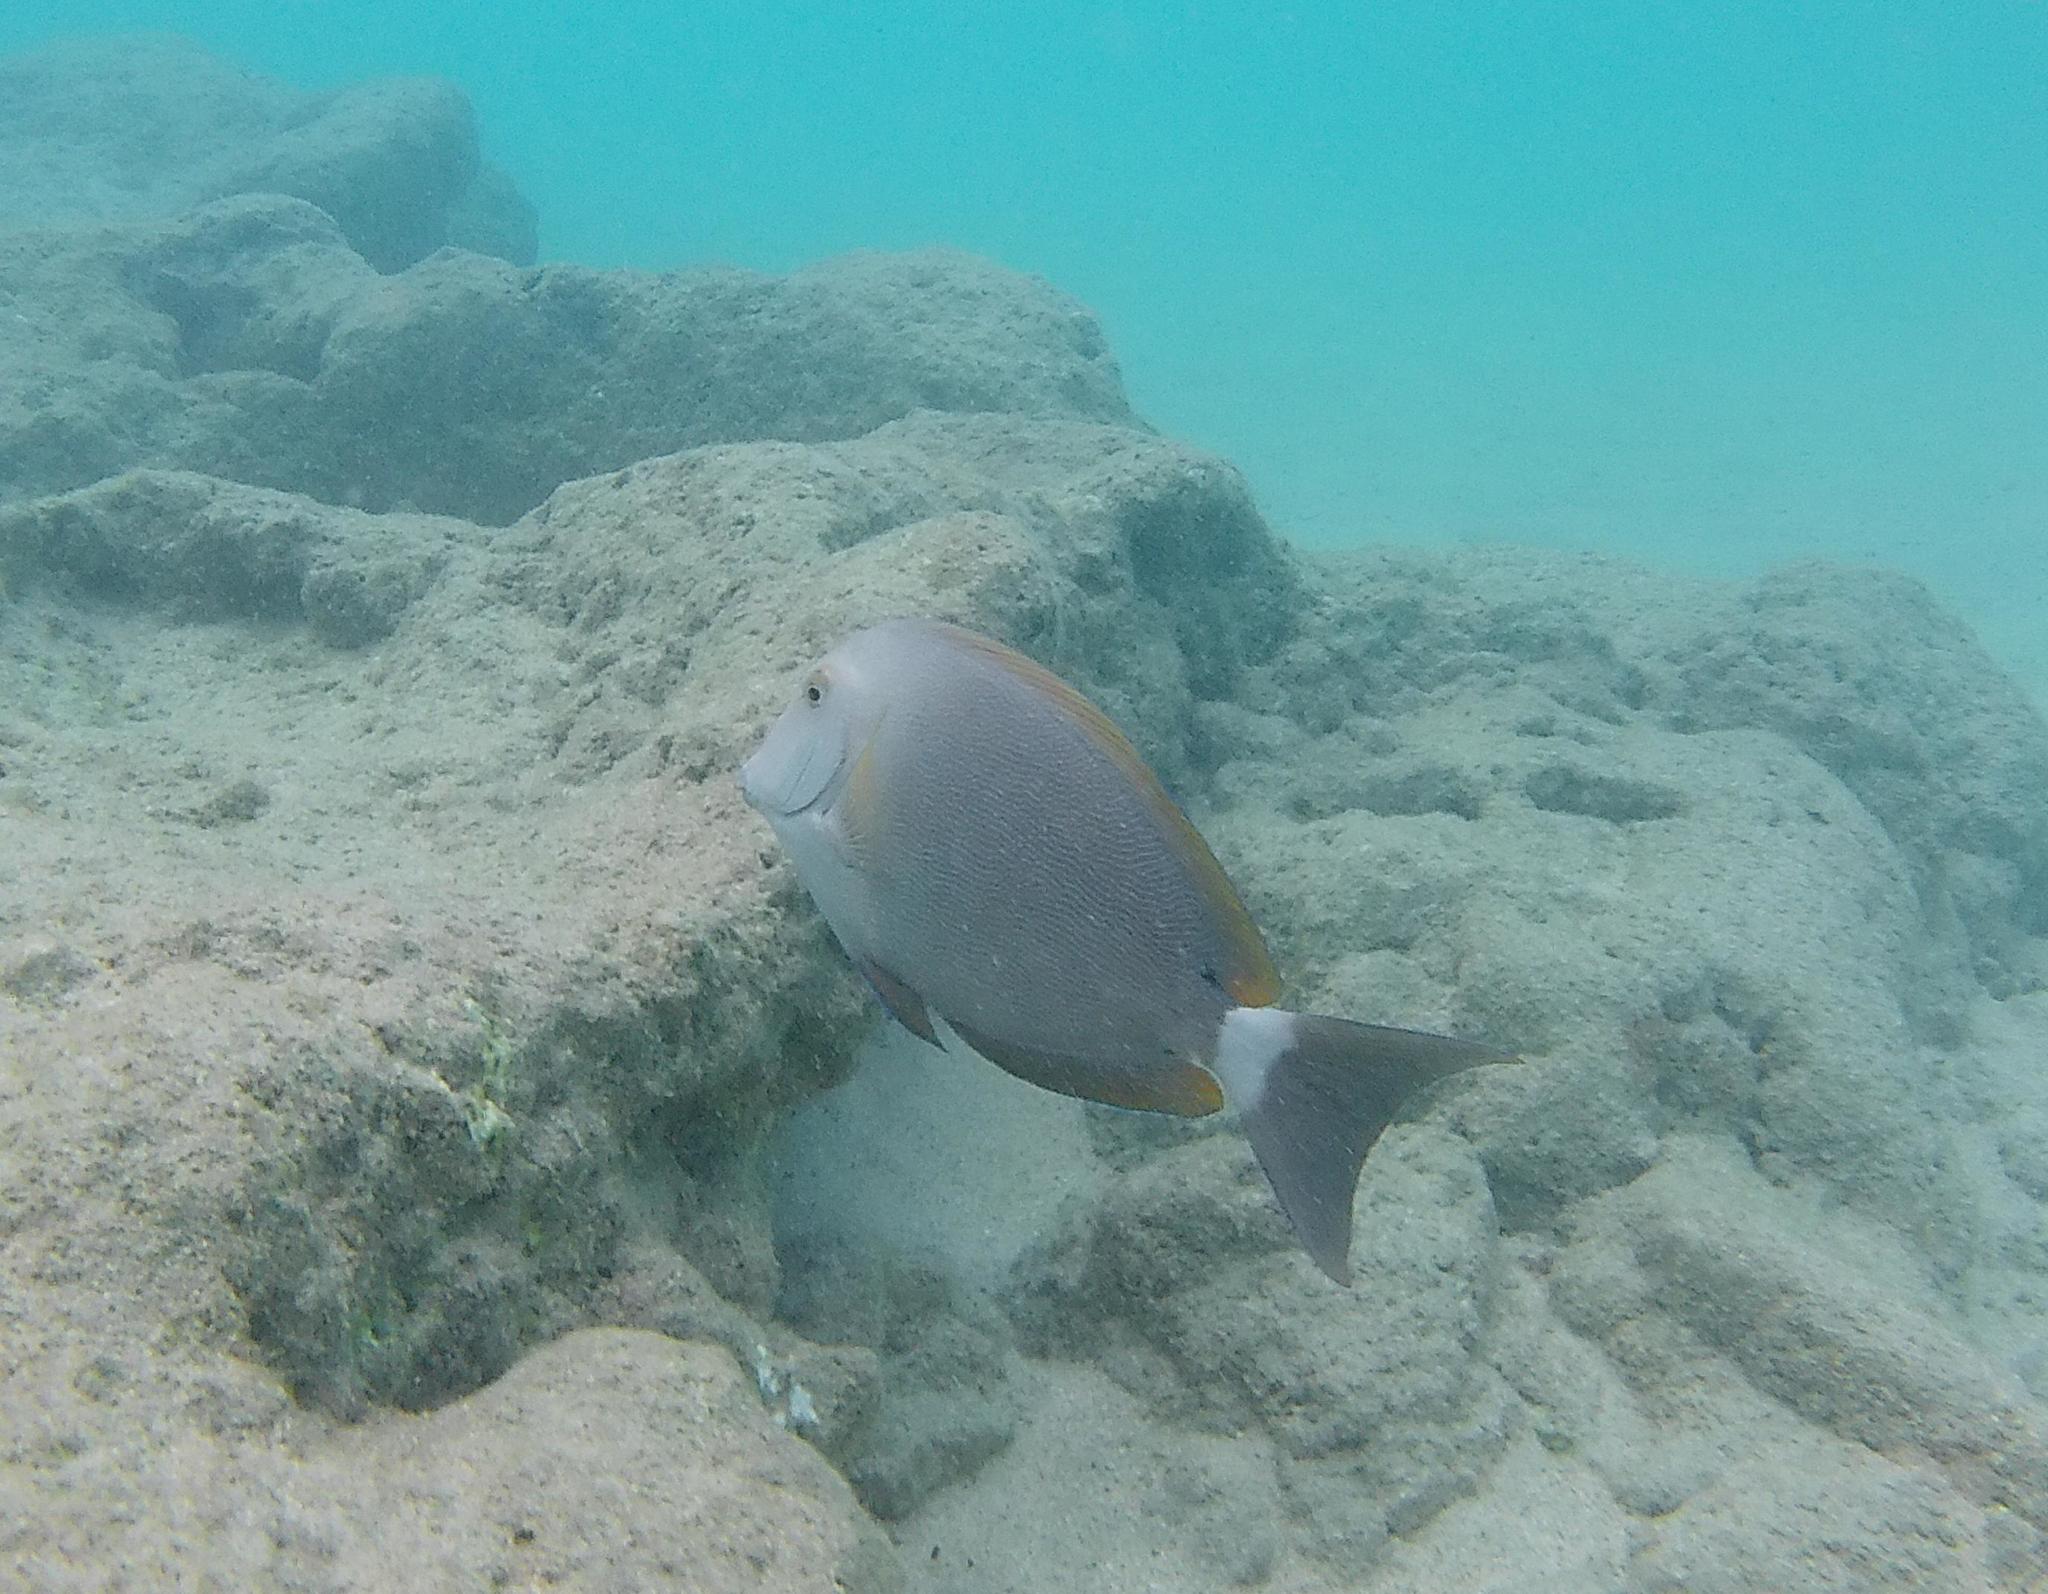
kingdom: Animalia
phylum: Chordata
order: Perciformes
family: Acanthuridae
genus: Acanthurus
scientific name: Acanthurus nigroris
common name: Bluelined surgeonfish
